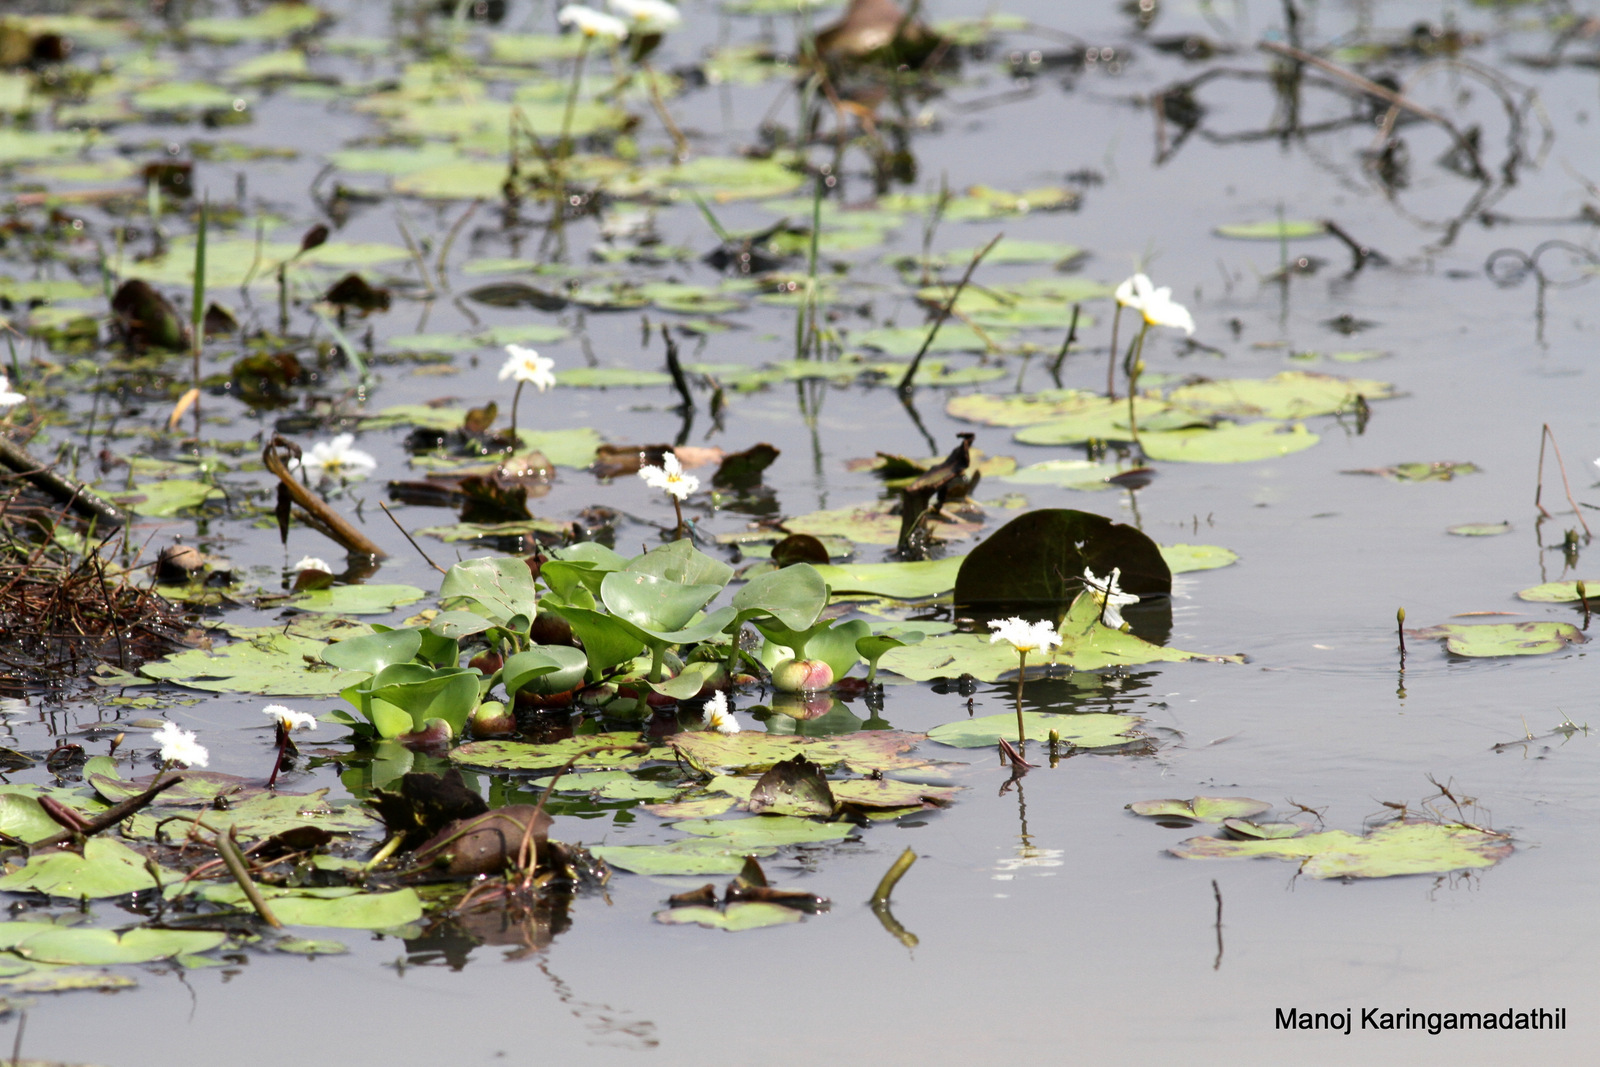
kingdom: Plantae
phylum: Tracheophyta
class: Magnoliopsida
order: Asterales
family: Menyanthaceae
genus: Nymphoides
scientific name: Nymphoides indica
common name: Water-snowflake
